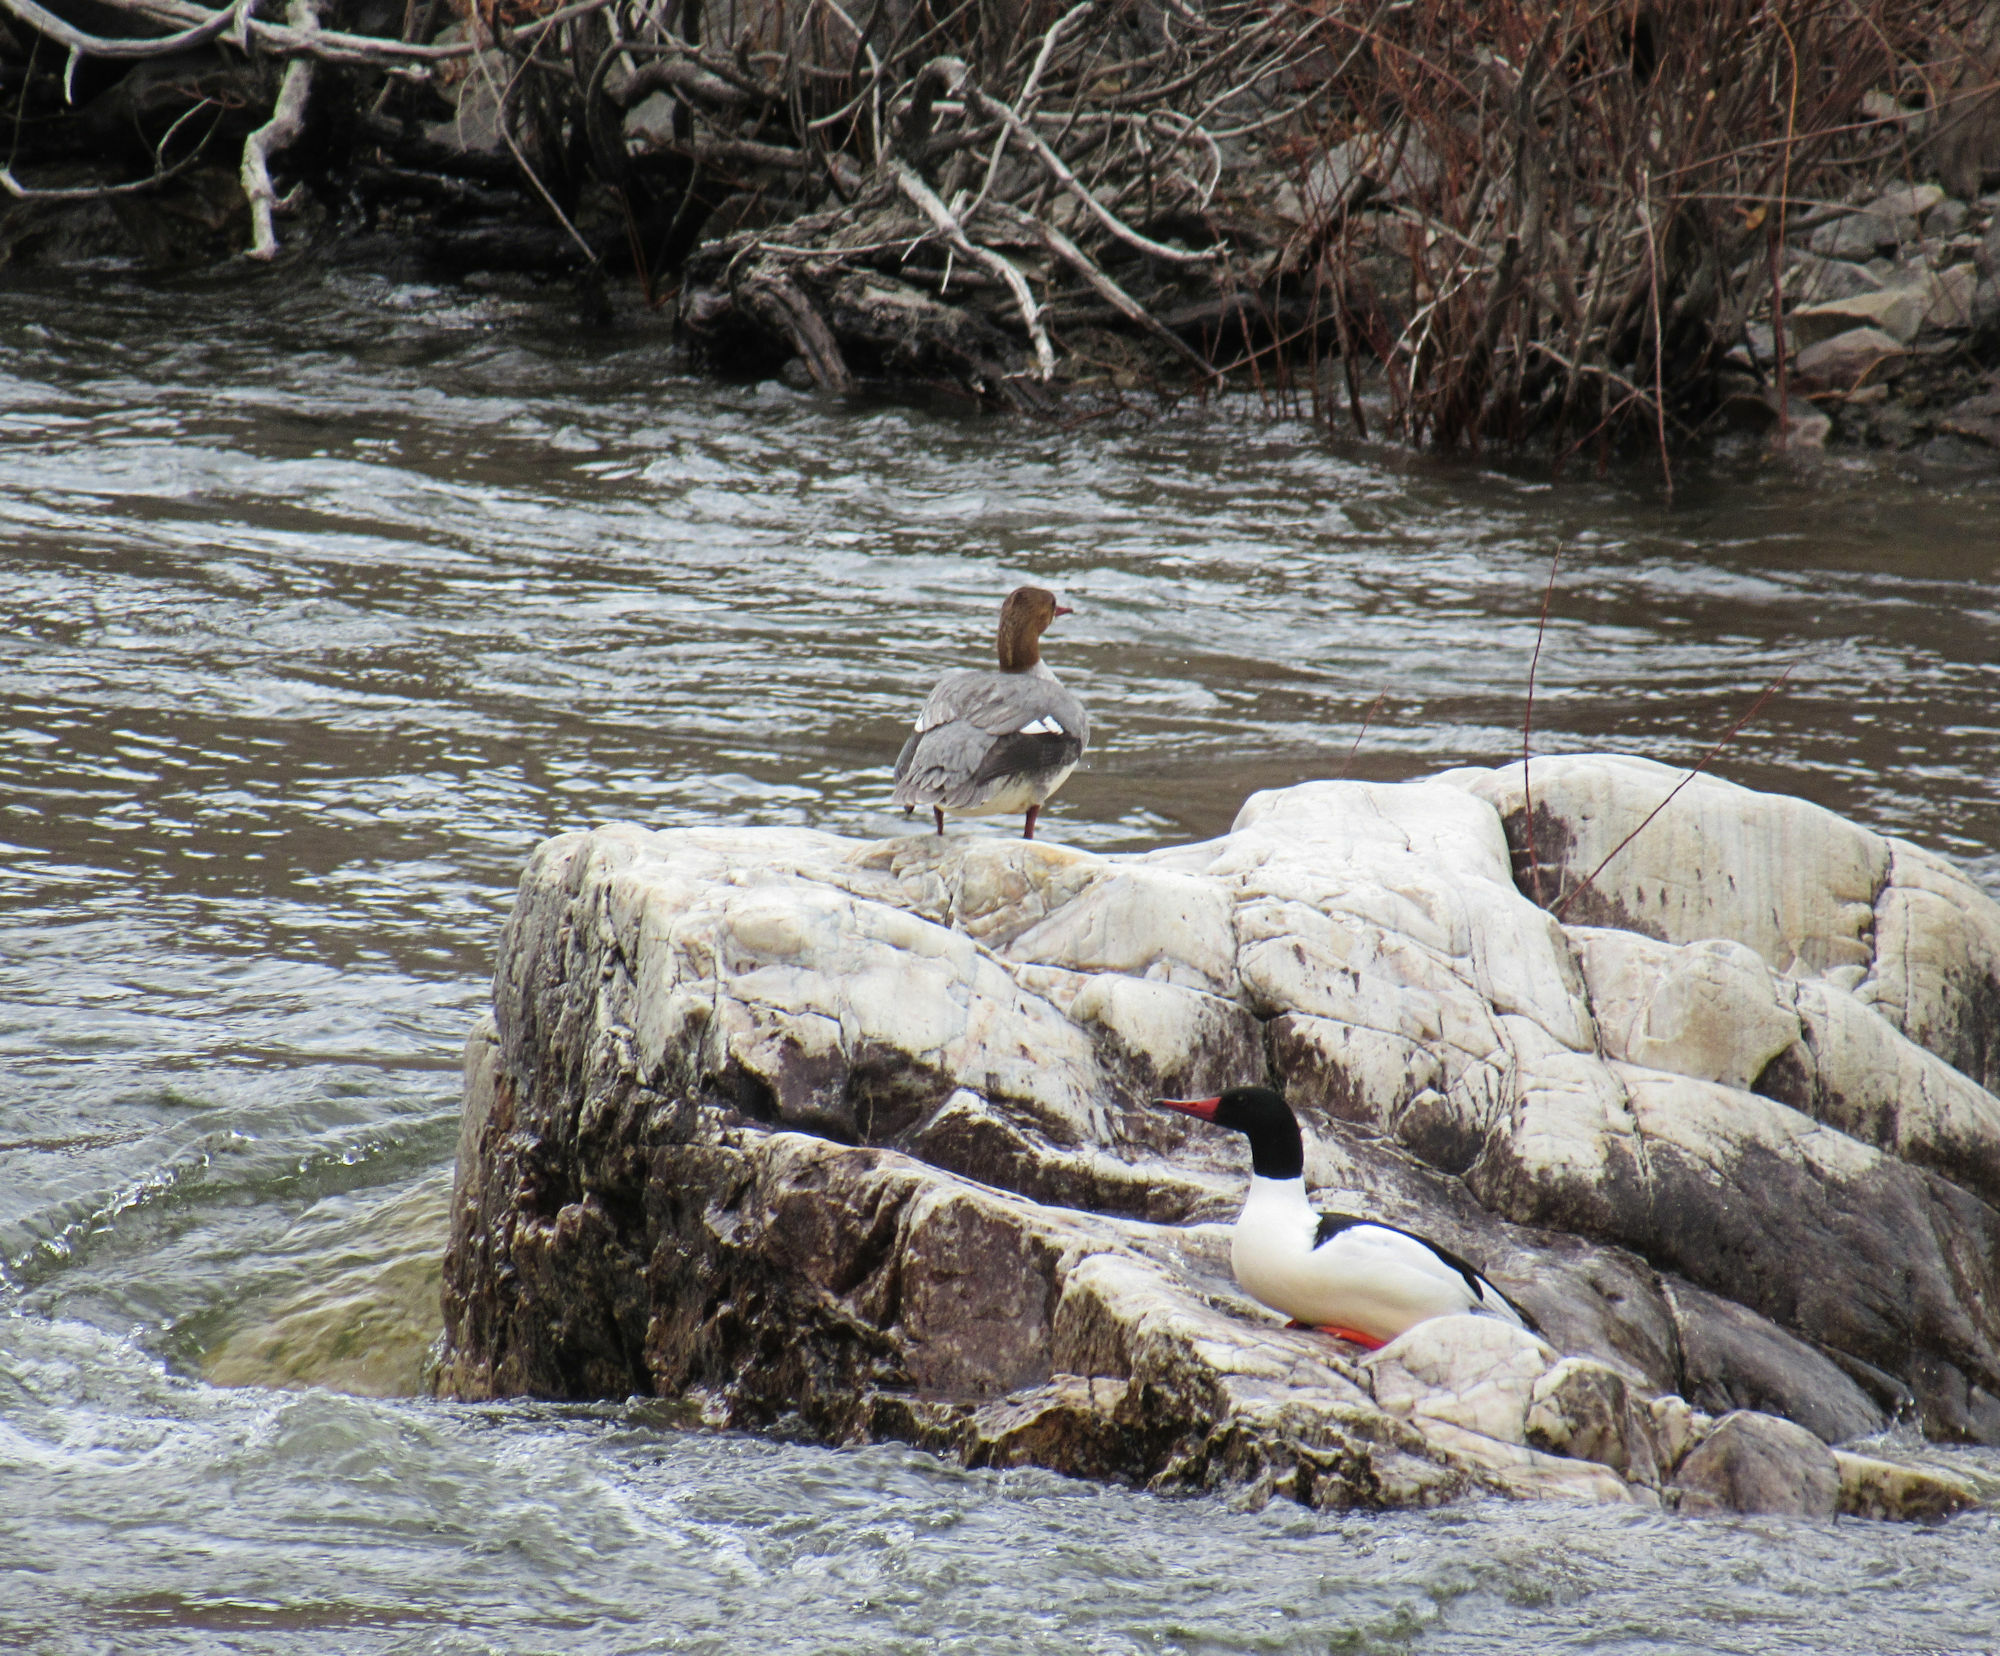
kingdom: Animalia
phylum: Chordata
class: Aves
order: Anseriformes
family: Anatidae
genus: Mergus
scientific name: Mergus merganser
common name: Common merganser
